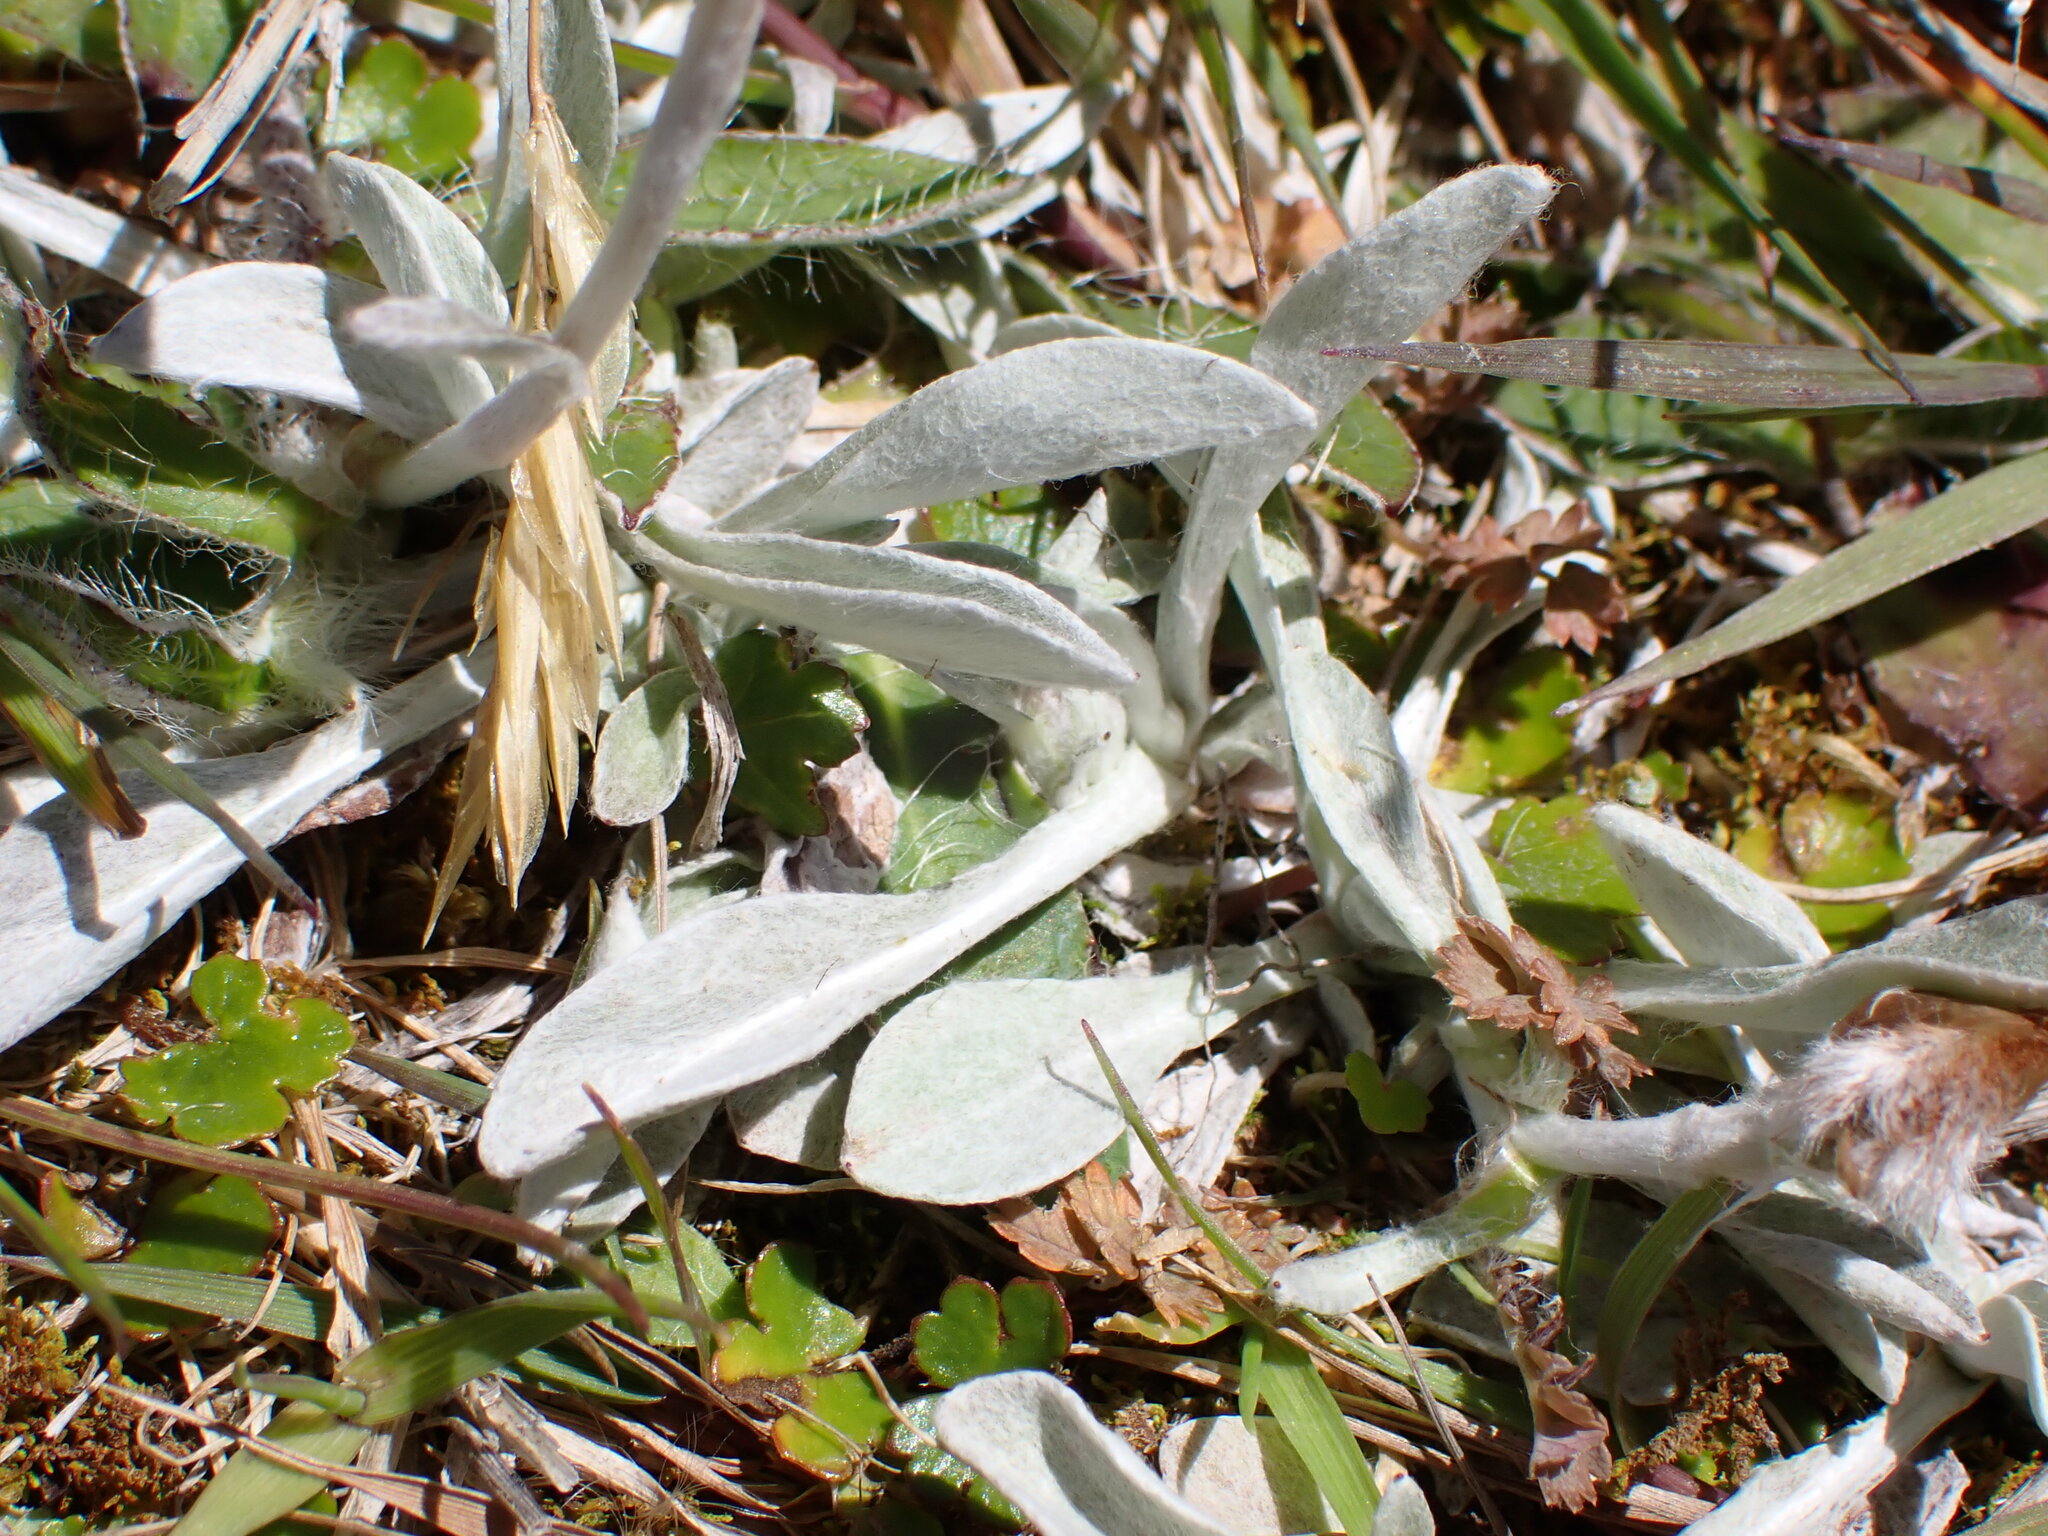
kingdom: Plantae
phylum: Tracheophyta
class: Magnoliopsida
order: Asterales
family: Asteraceae
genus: Argyrotegium
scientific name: Argyrotegium mackayi
